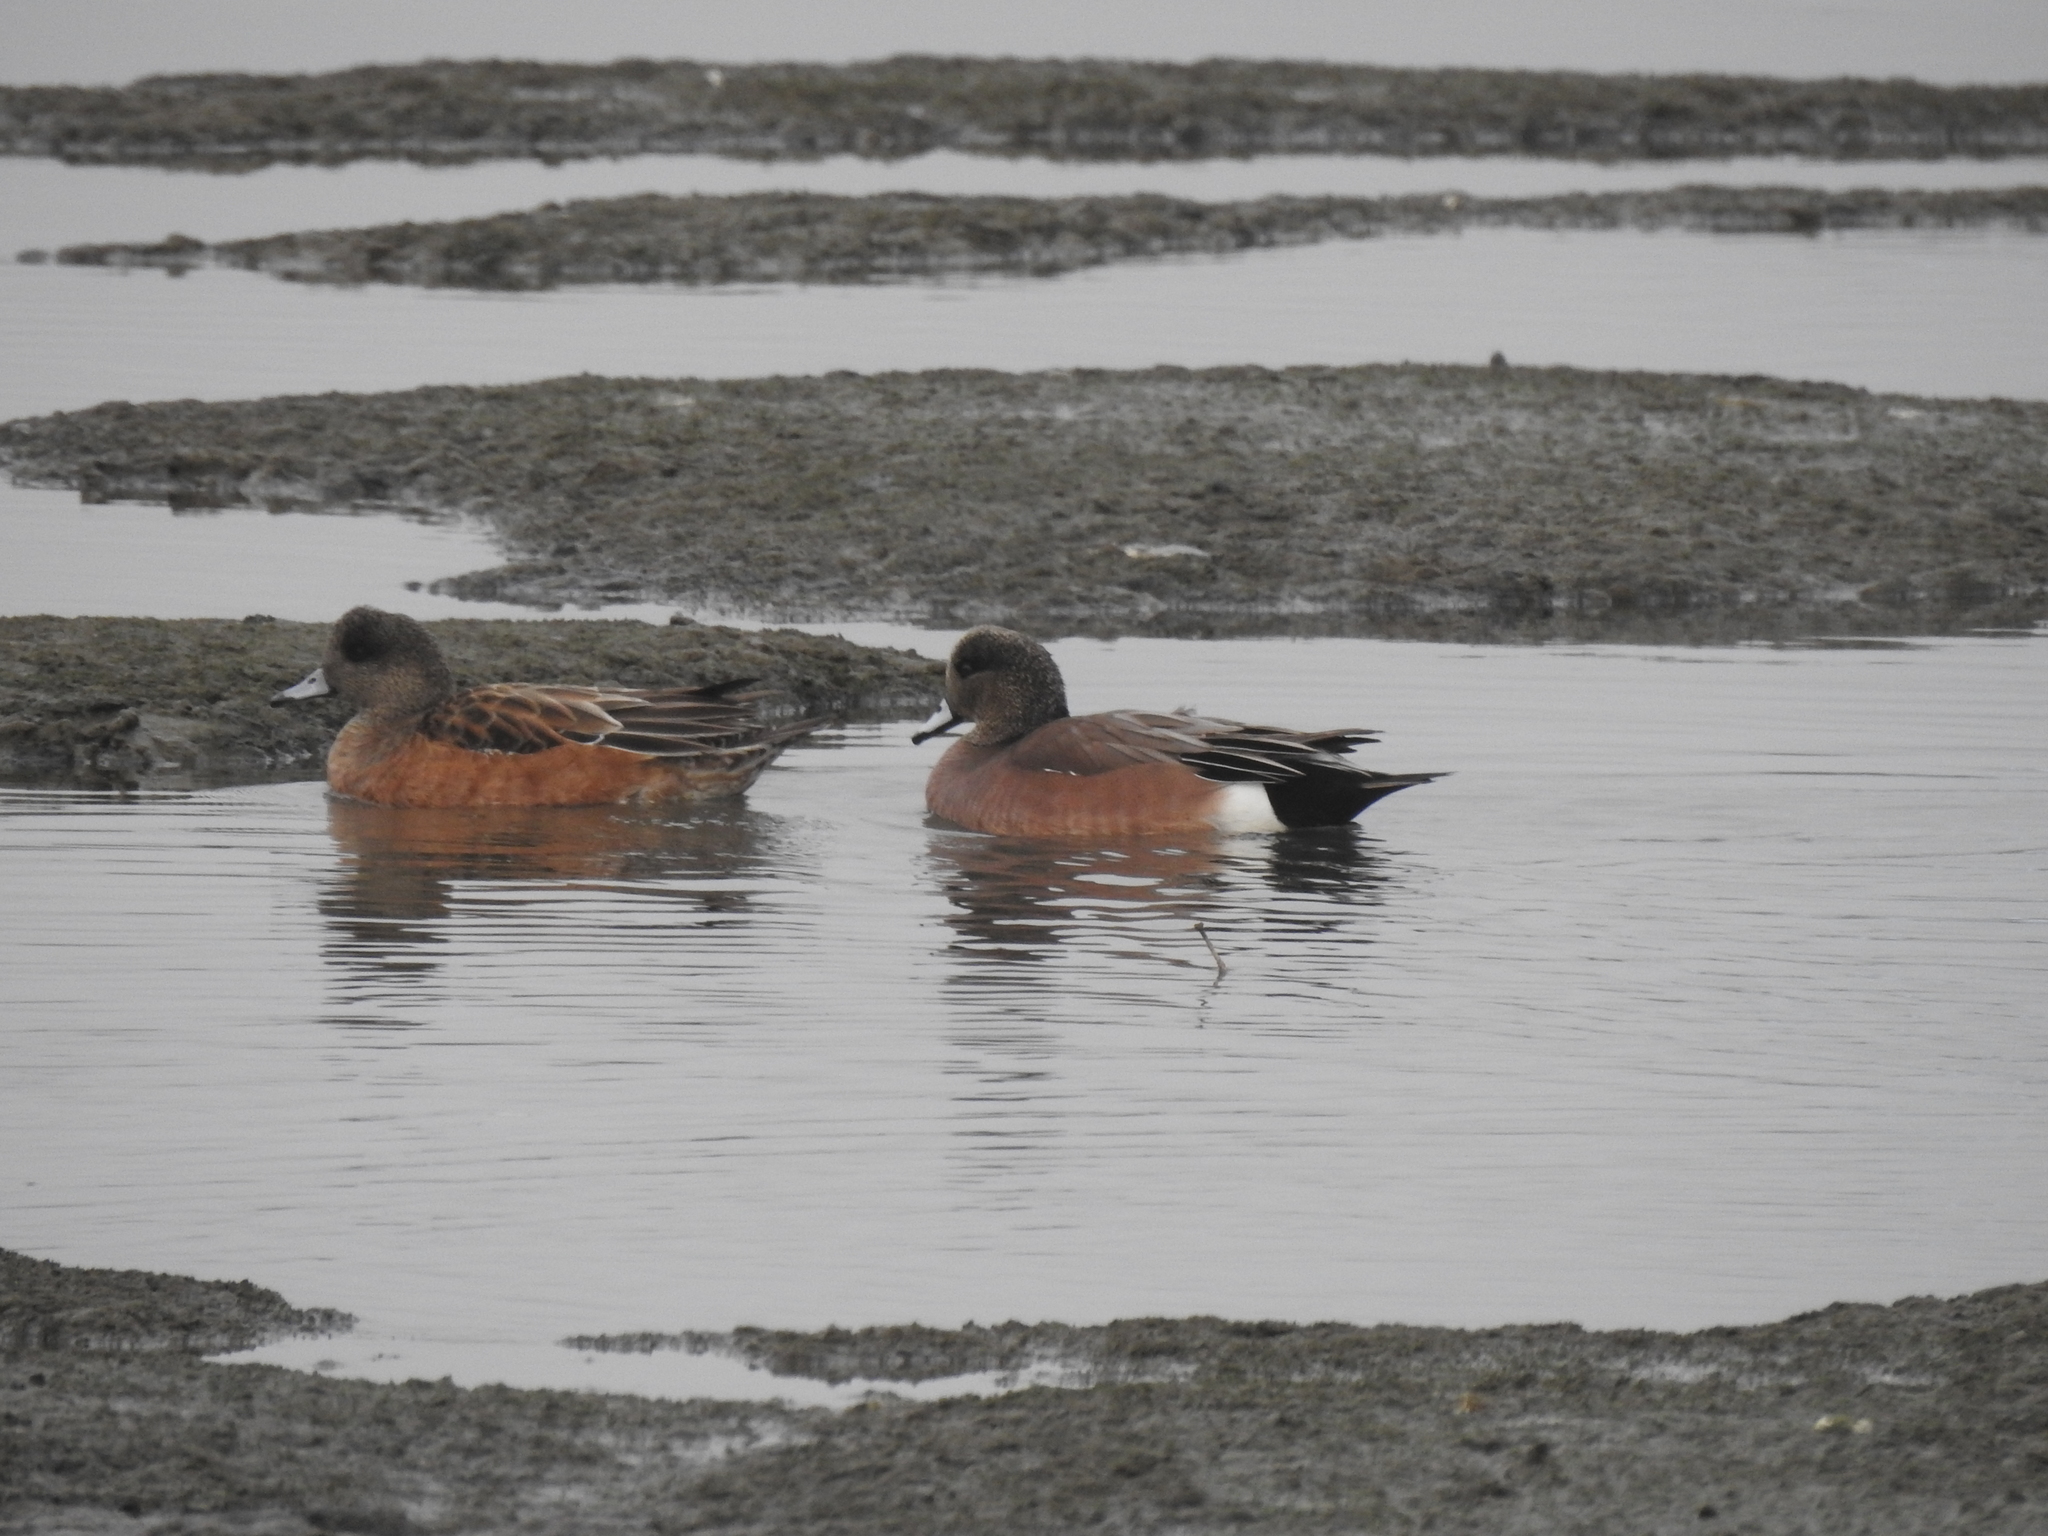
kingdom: Animalia
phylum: Chordata
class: Aves
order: Anseriformes
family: Anatidae
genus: Mareca
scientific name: Mareca americana
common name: American wigeon
